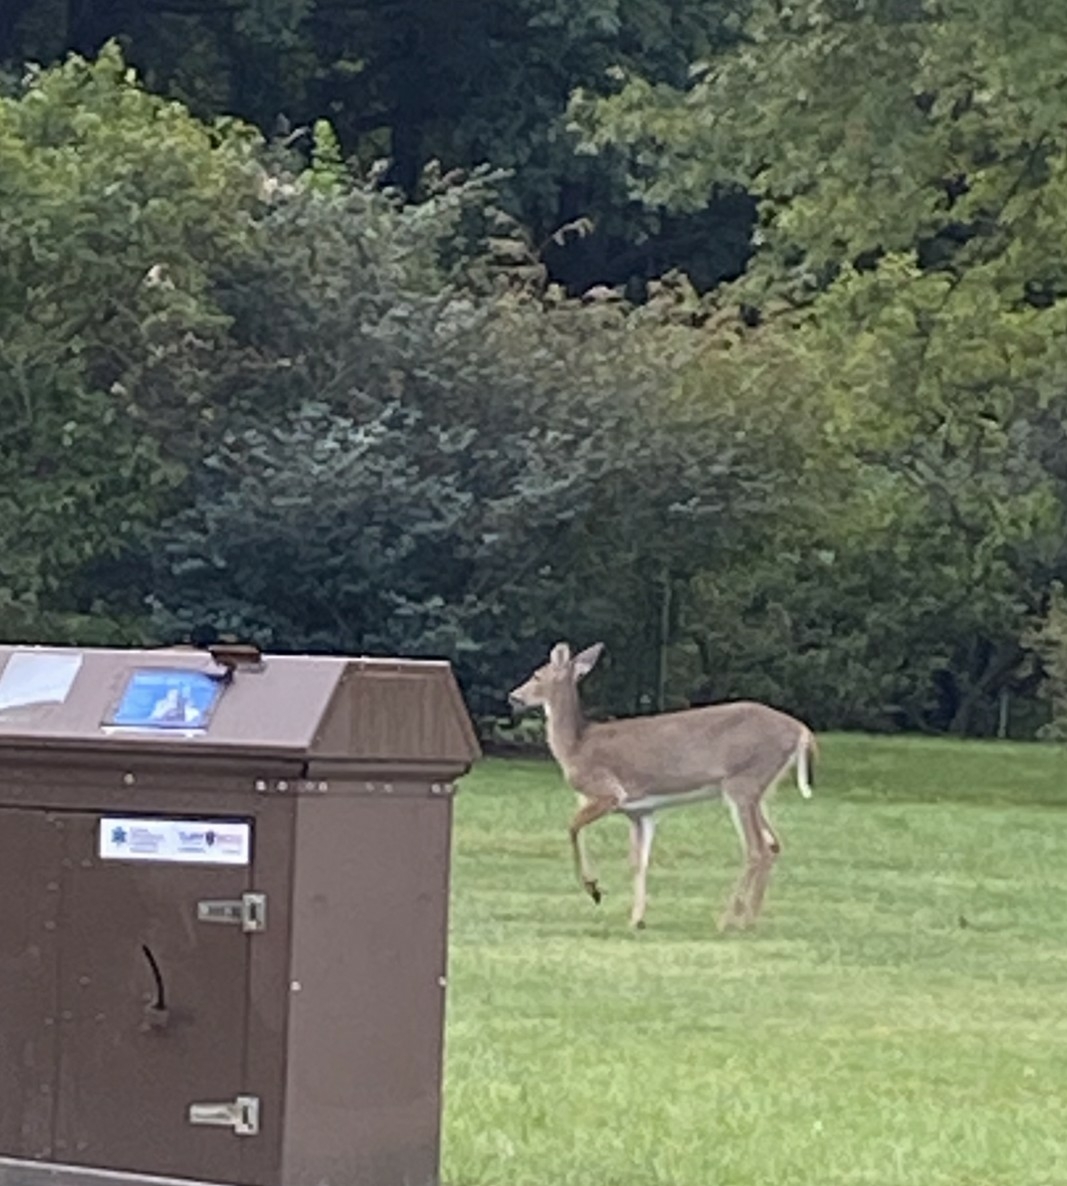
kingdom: Animalia
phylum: Chordata
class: Mammalia
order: Artiodactyla
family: Cervidae
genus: Odocoileus
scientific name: Odocoileus virginianus
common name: White-tailed deer
